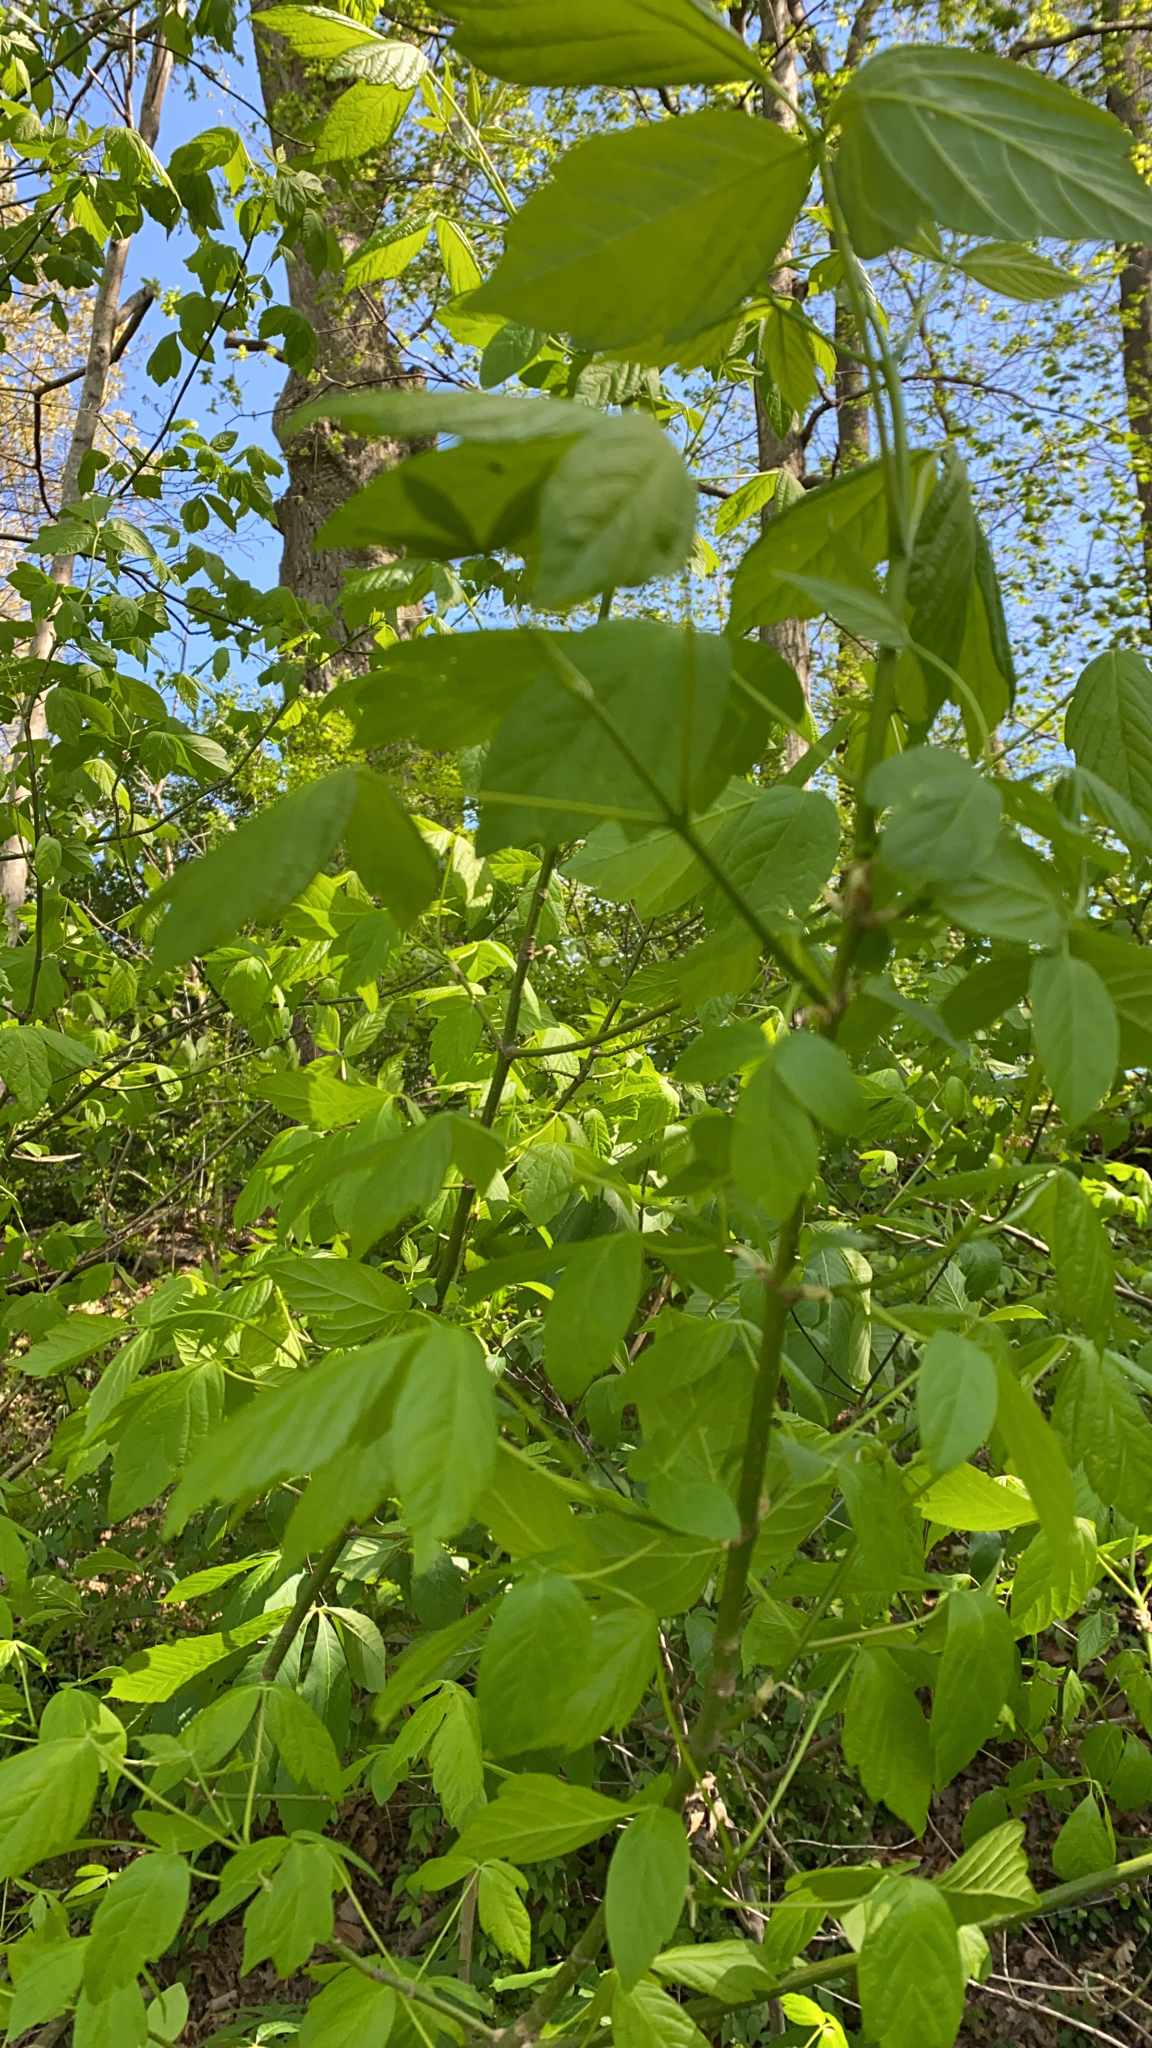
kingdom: Plantae
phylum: Tracheophyta
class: Magnoliopsida
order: Sapindales
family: Sapindaceae
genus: Acer
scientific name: Acer negundo
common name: Ashleaf maple
